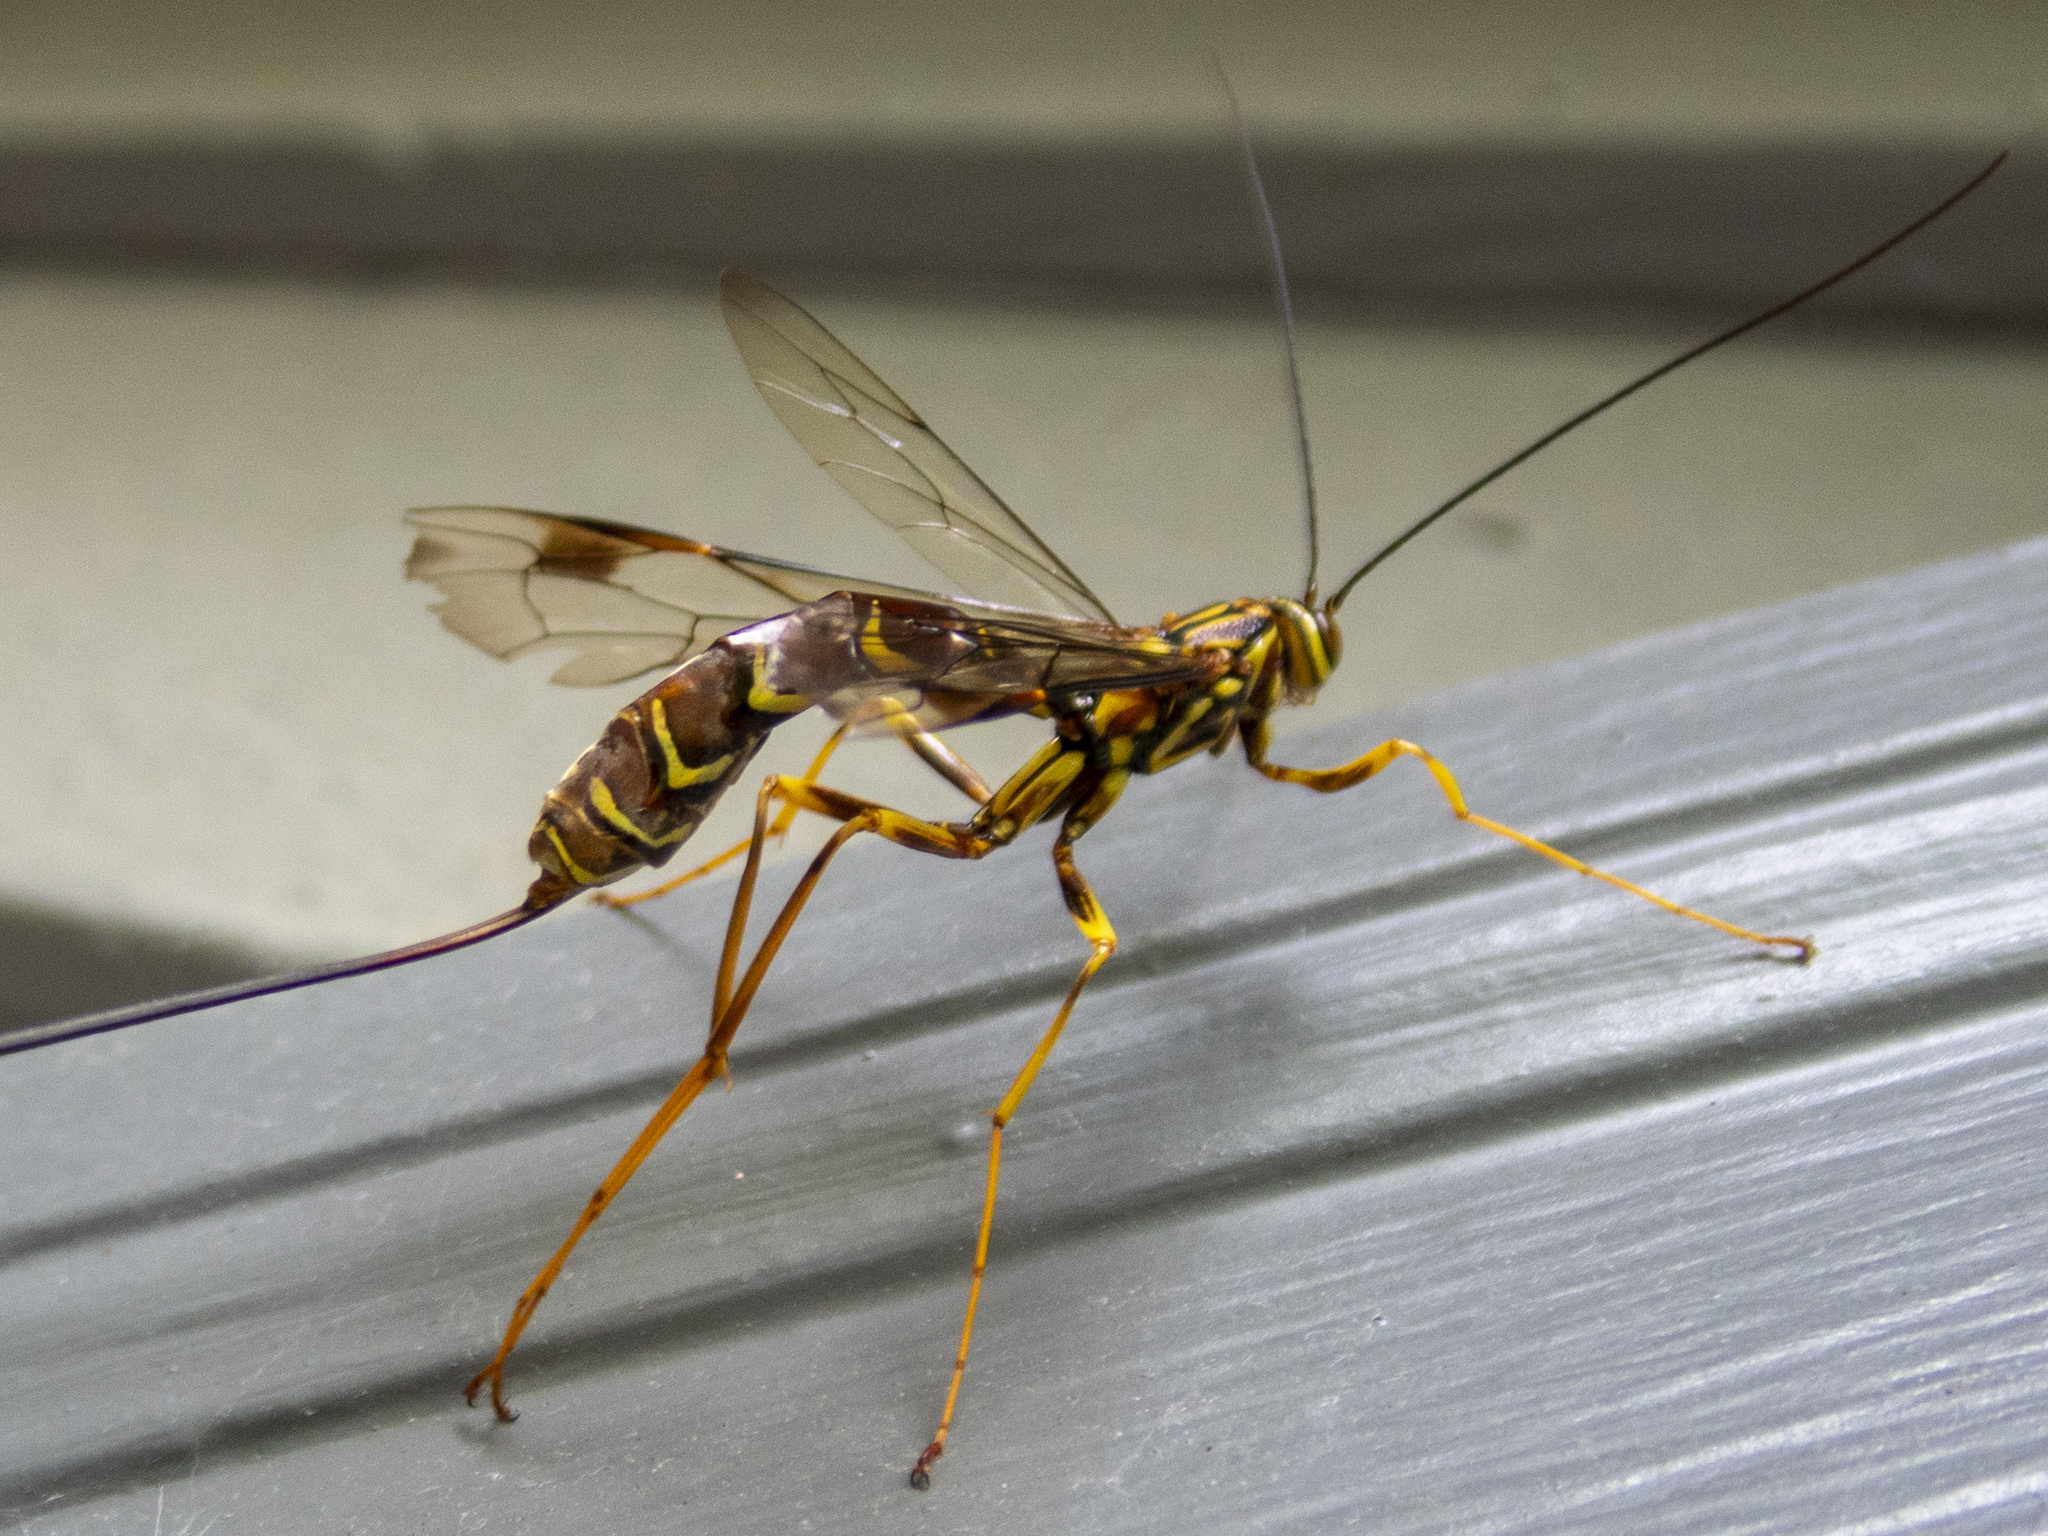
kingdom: Animalia
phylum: Arthropoda
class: Insecta
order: Hymenoptera
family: Ichneumonidae
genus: Megarhyssa
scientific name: Megarhyssa macrura
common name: Long-tailed giant ichneumonid wasp
